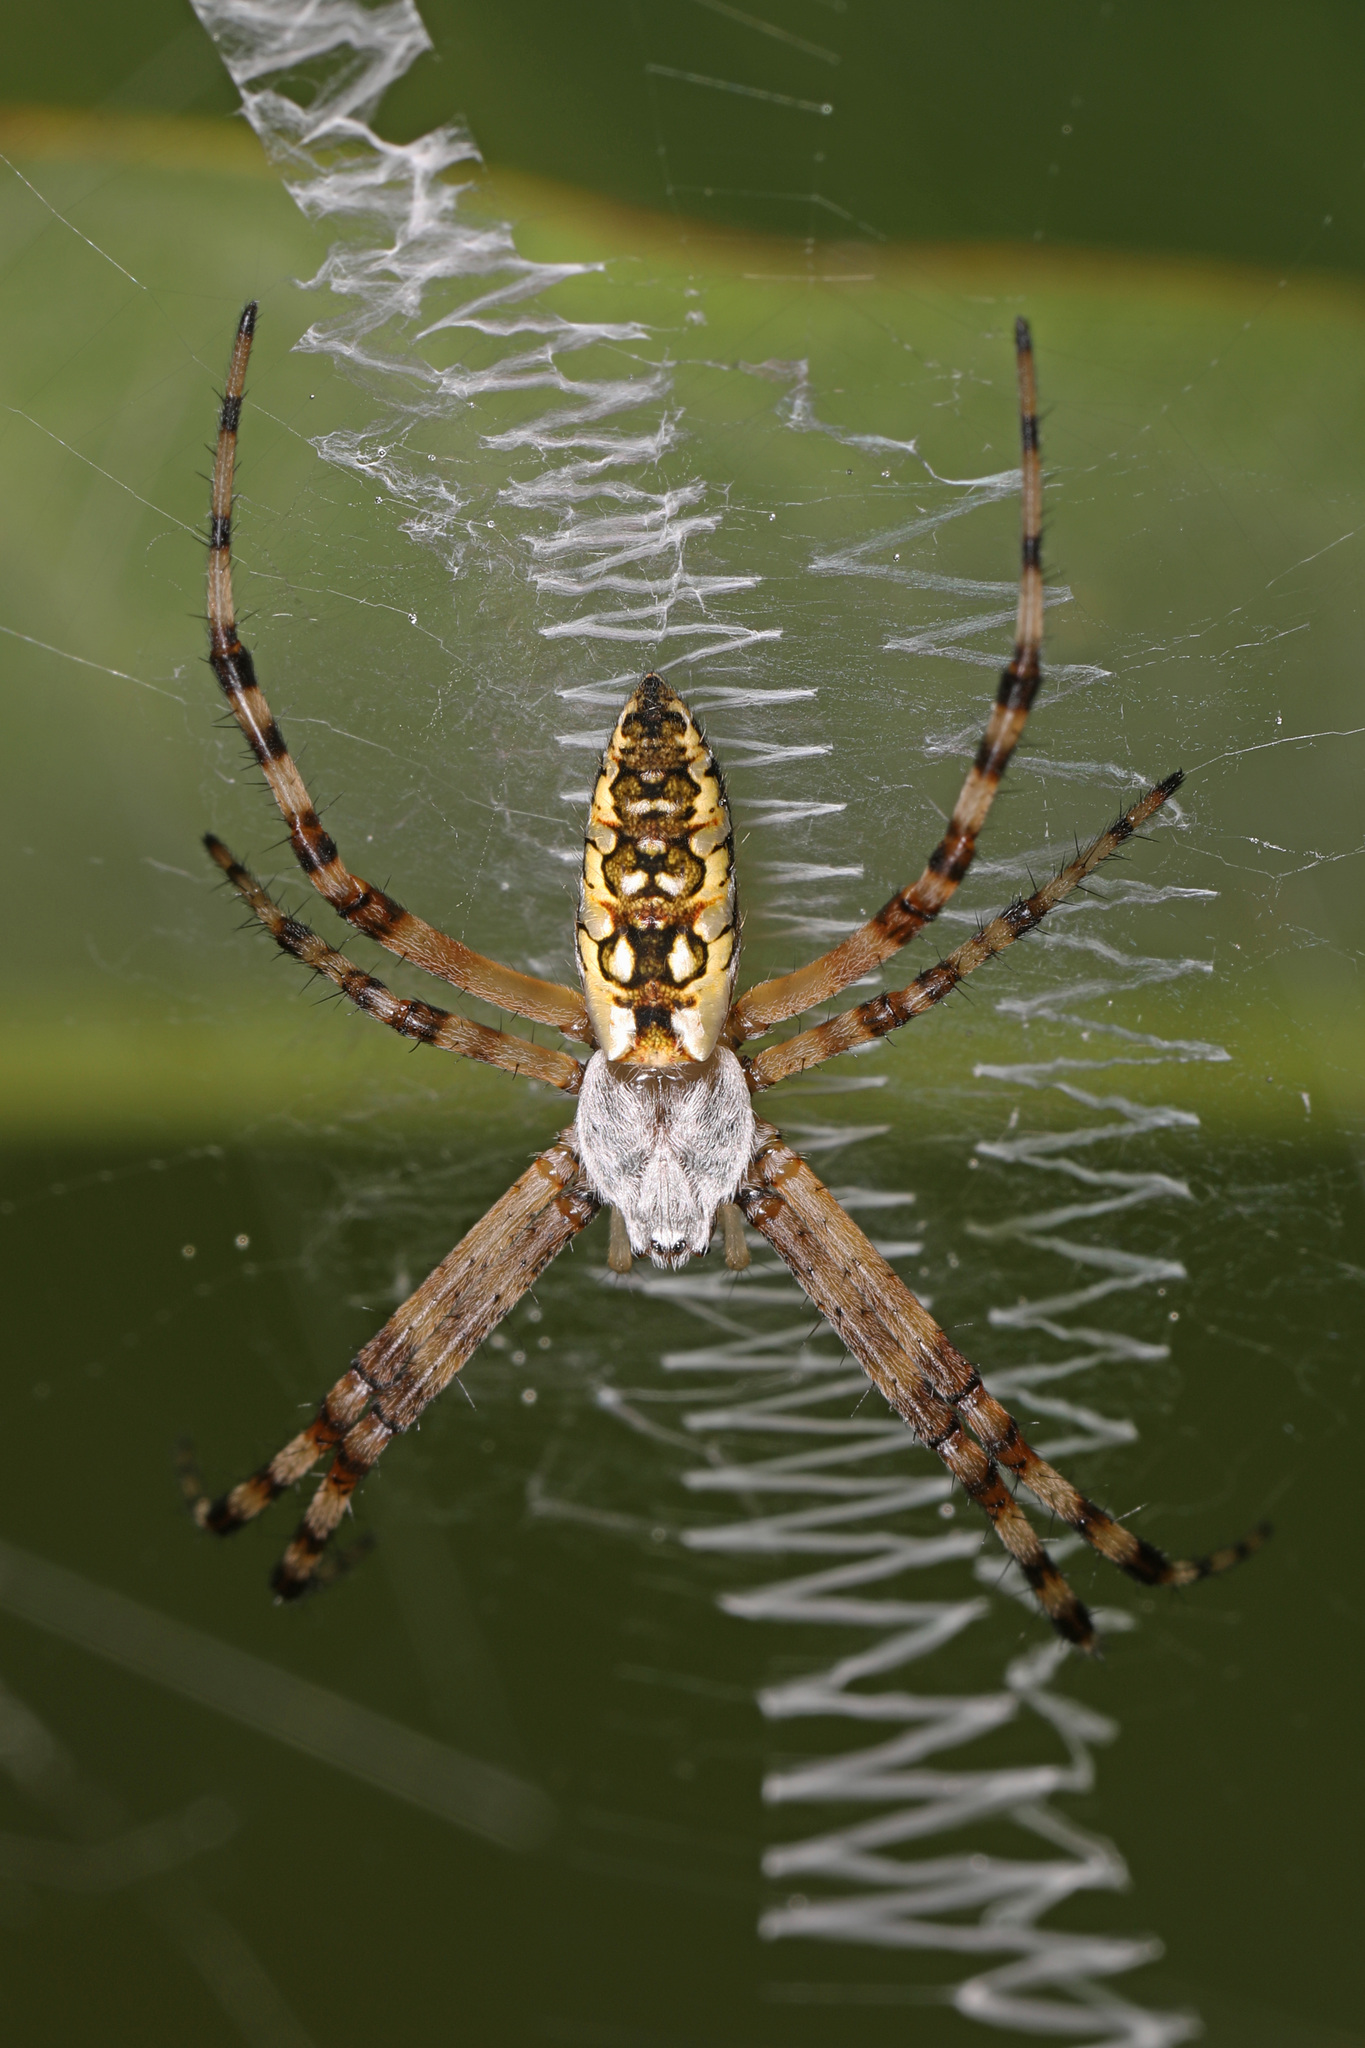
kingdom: Animalia
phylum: Arthropoda
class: Arachnida
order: Araneae
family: Araneidae
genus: Argiope
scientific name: Argiope aurantia
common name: Orb weavers
